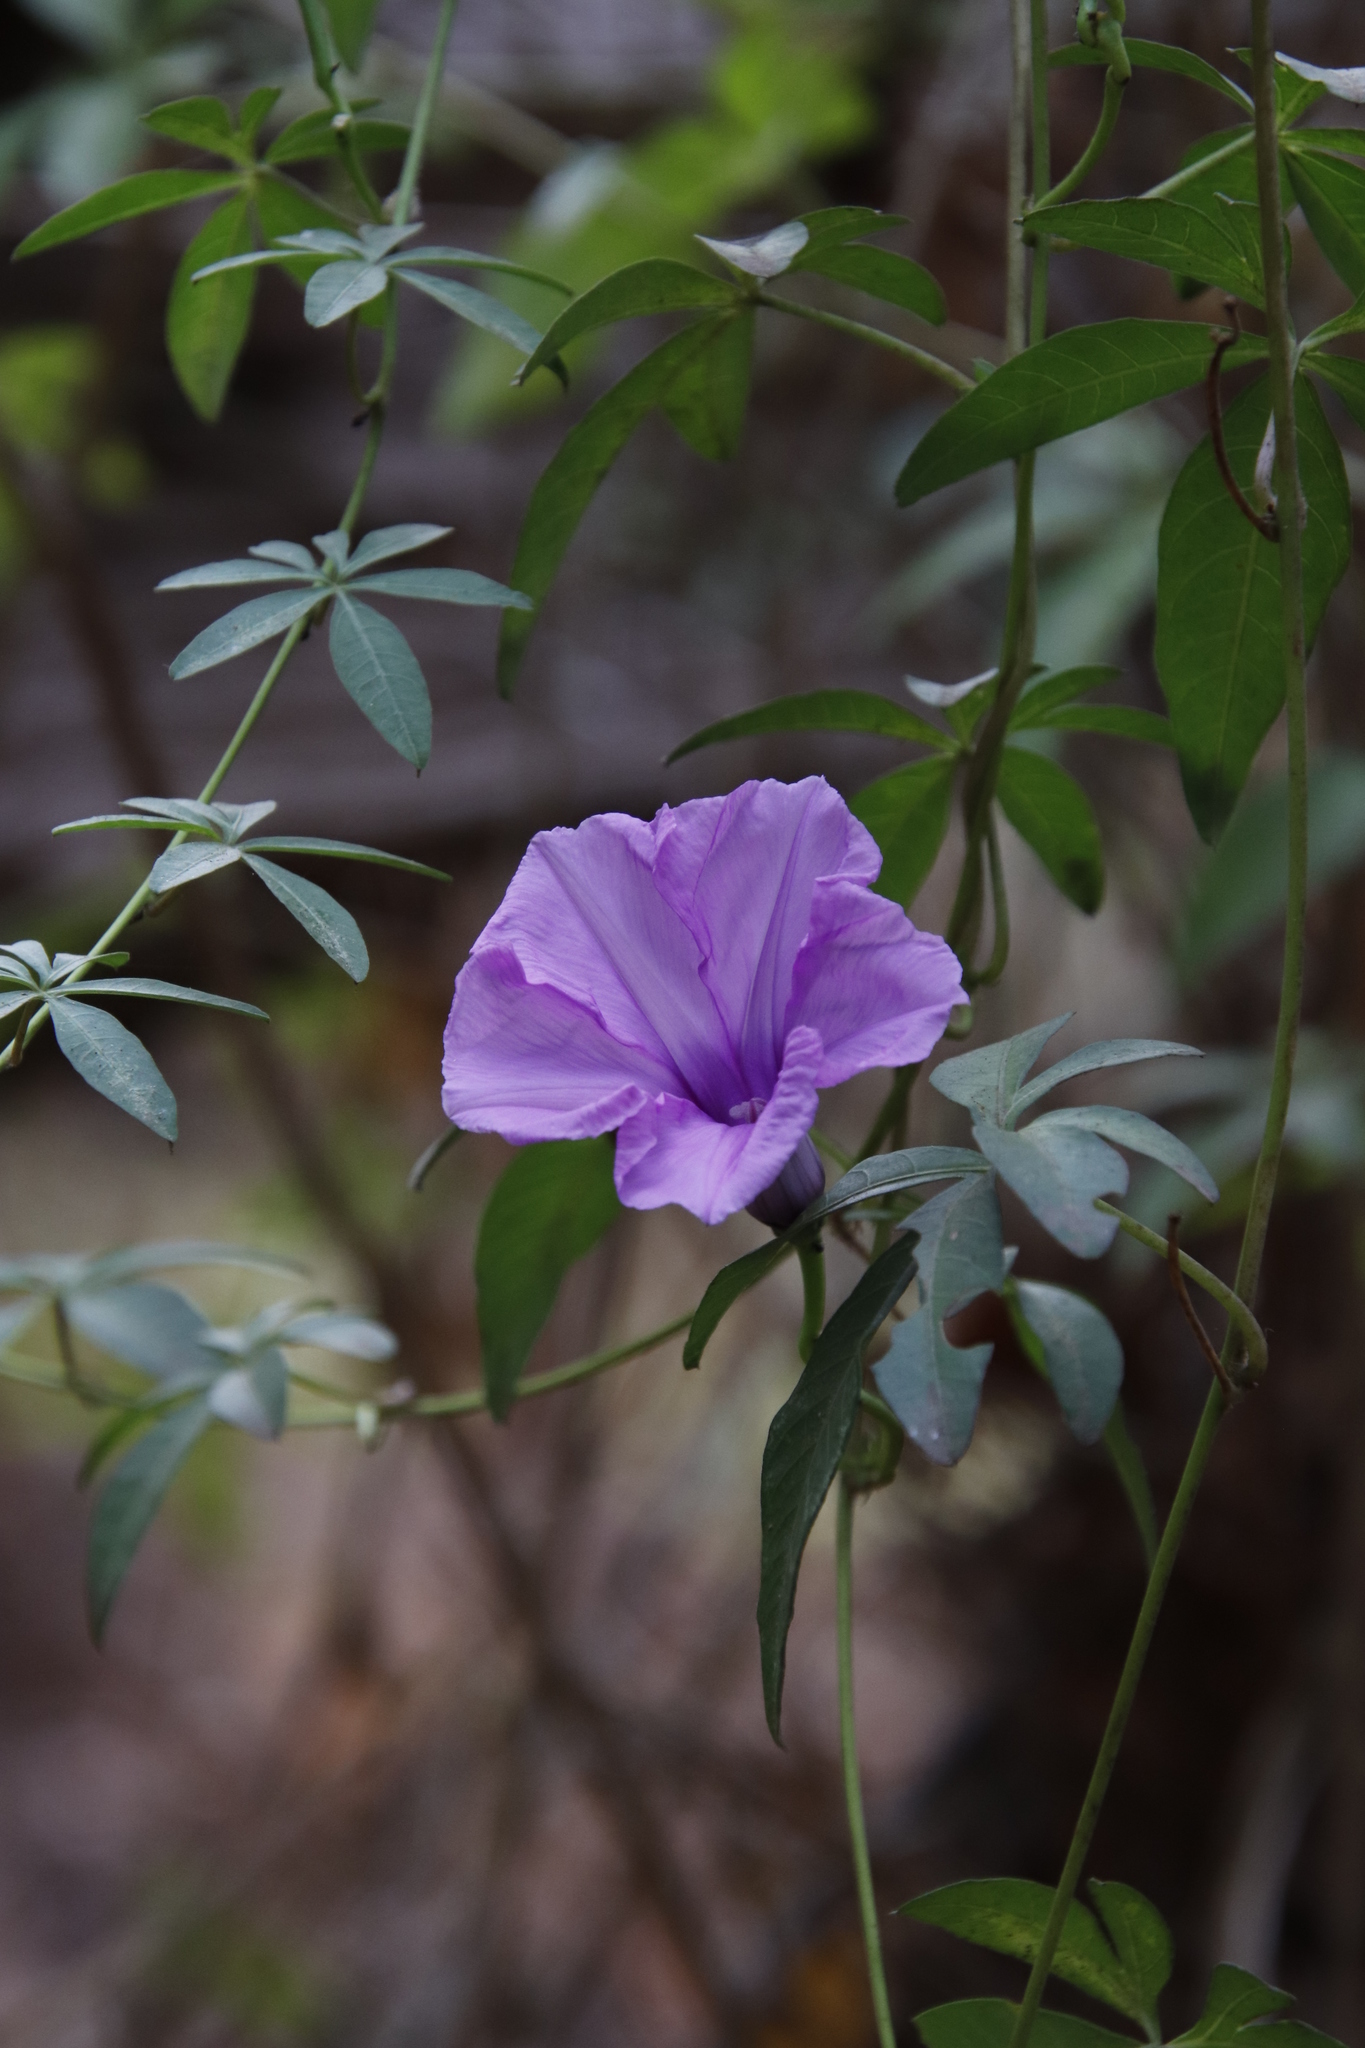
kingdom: Plantae
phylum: Tracheophyta
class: Magnoliopsida
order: Solanales
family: Convolvulaceae
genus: Ipomoea
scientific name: Ipomoea cairica
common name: Mile a minute vine
